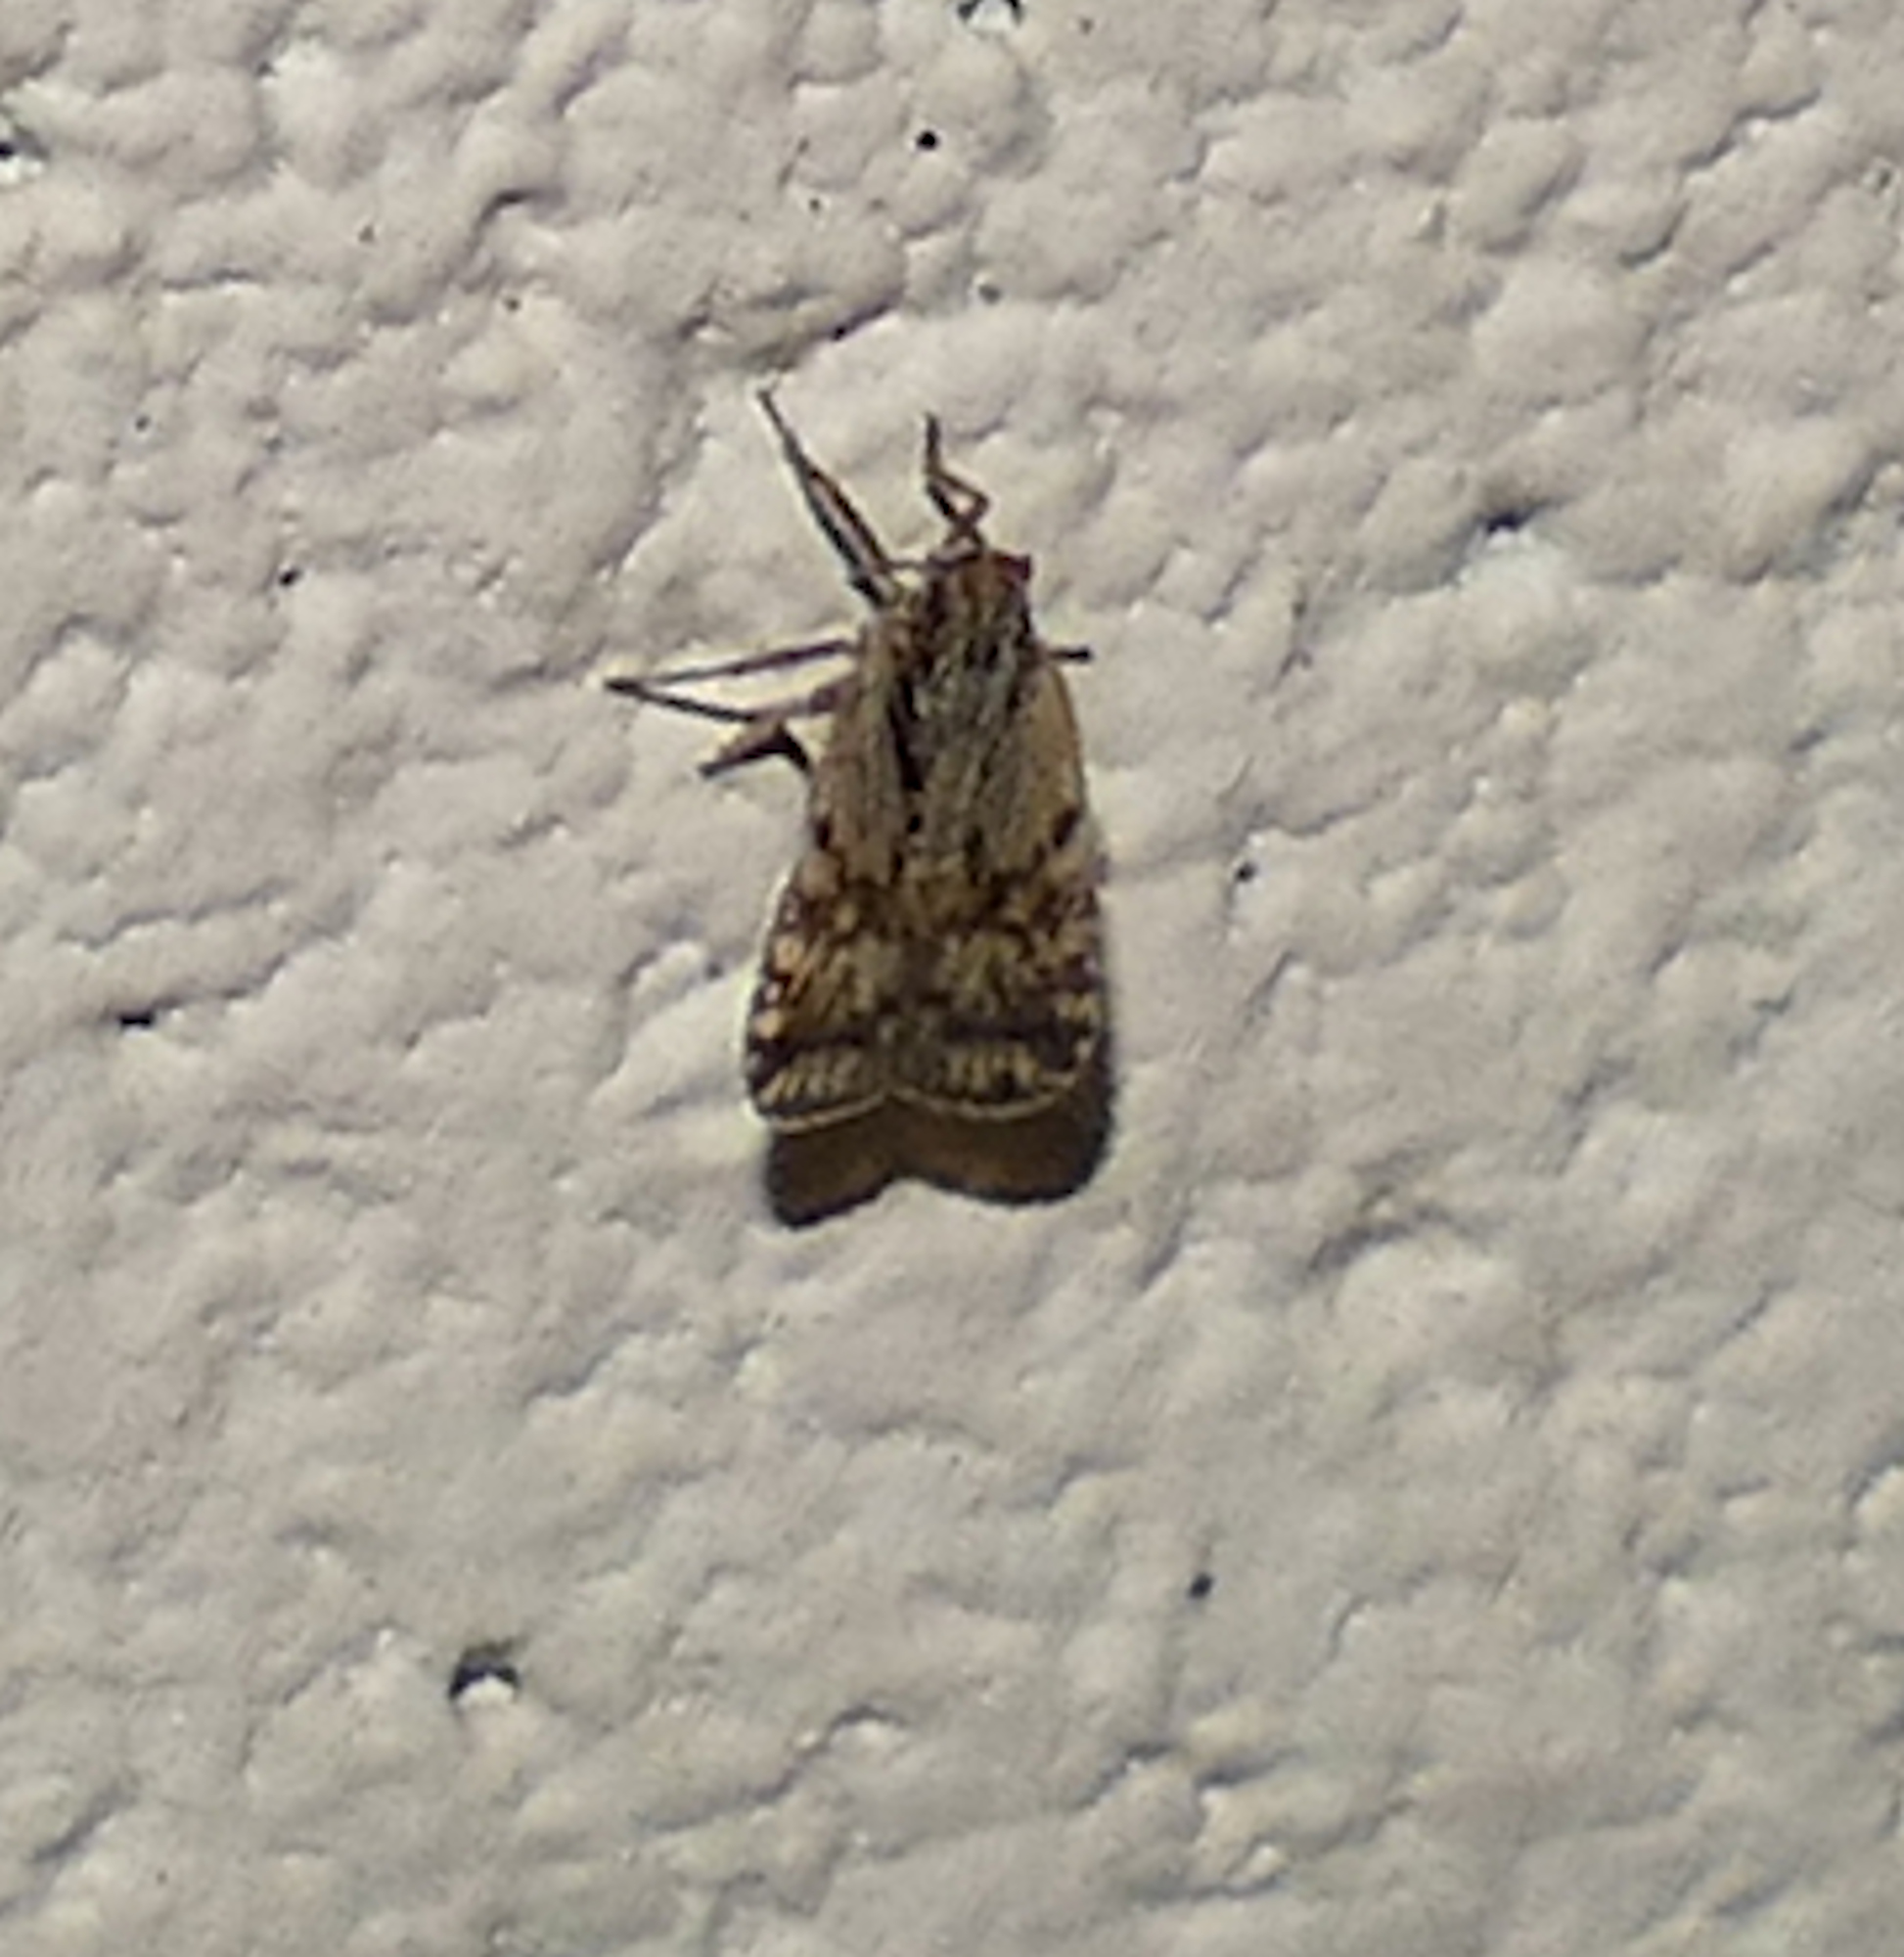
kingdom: Animalia
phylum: Arthropoda
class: Insecta
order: Hemiptera
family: Cixiidae
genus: Bothriocera
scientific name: Bothriocera maculata
